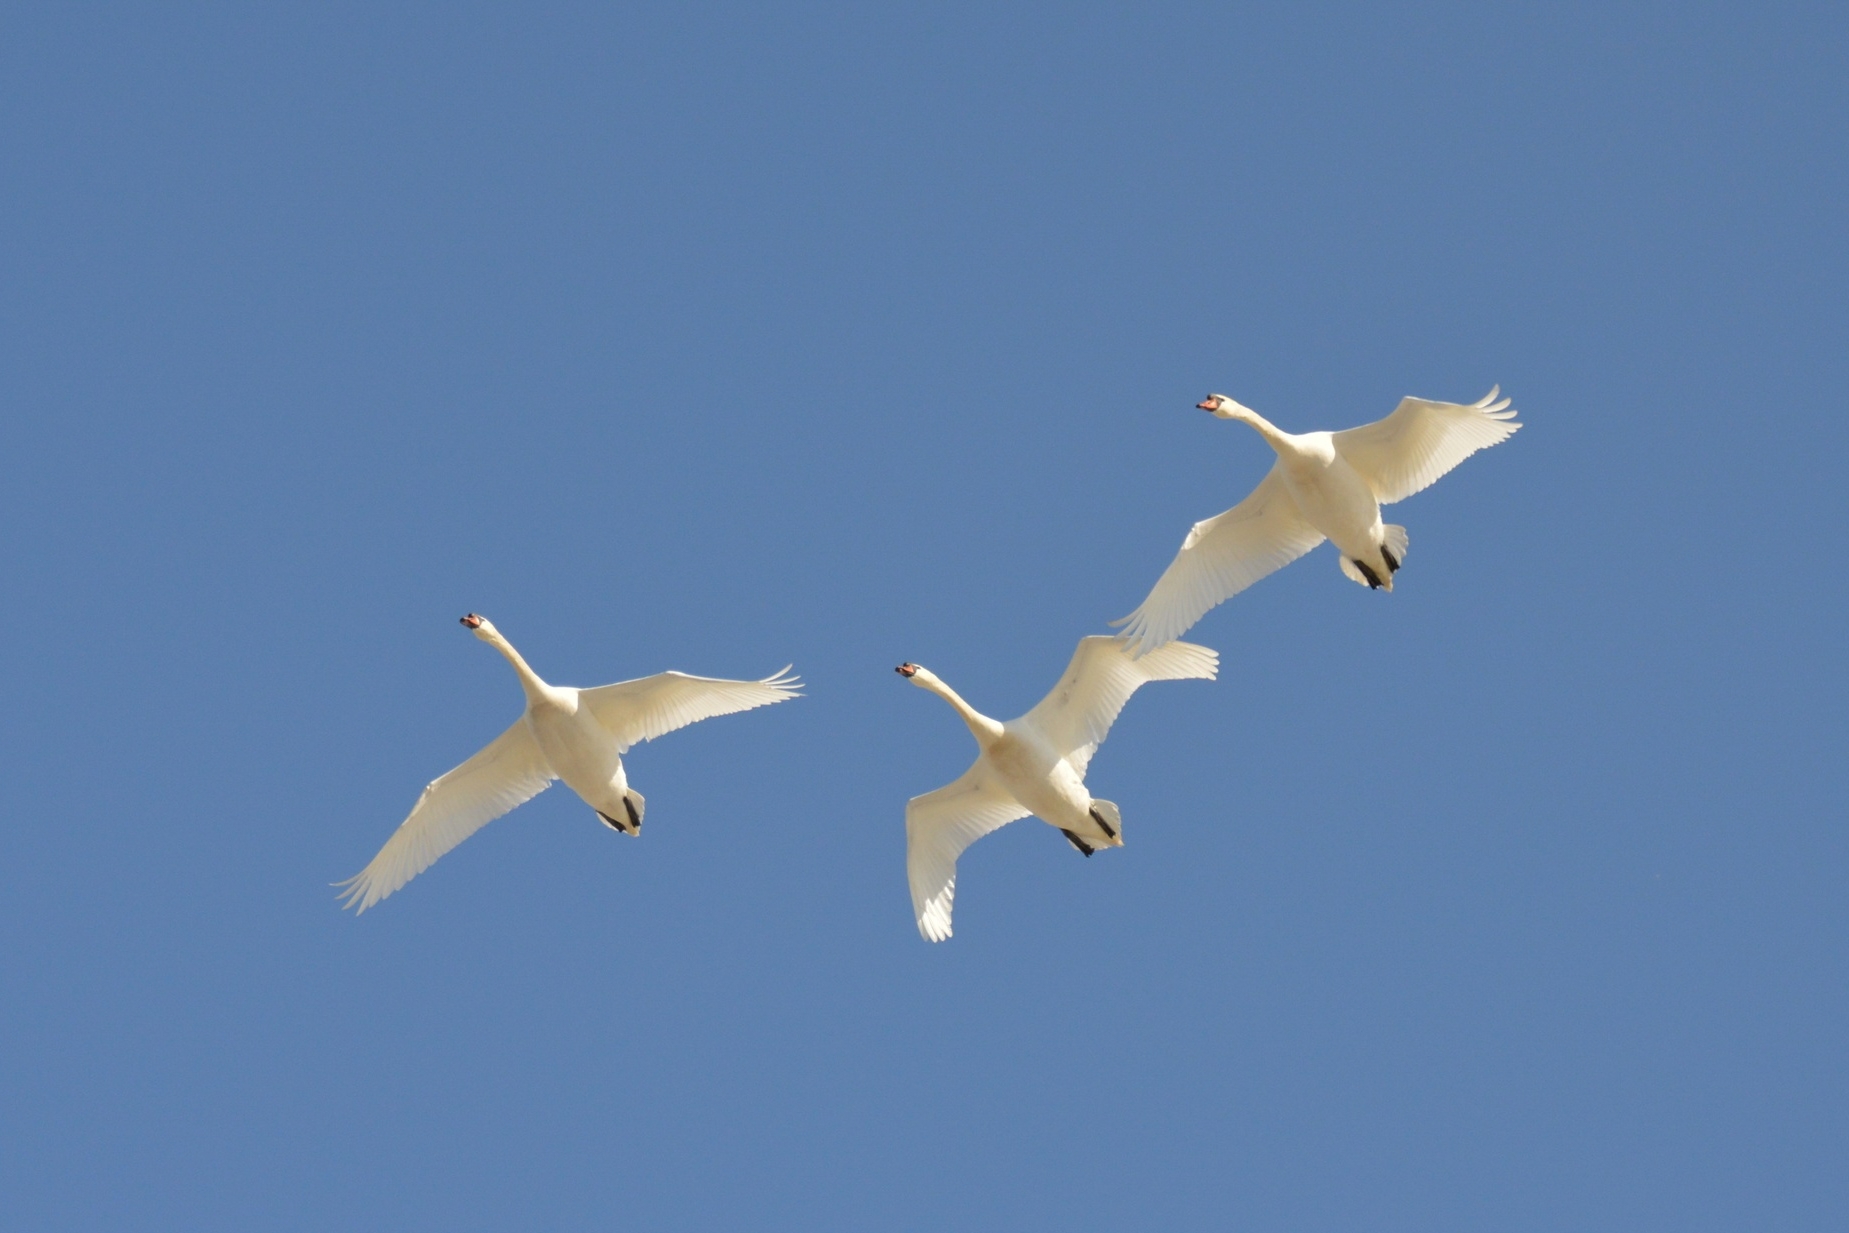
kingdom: Animalia
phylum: Chordata
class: Aves
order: Anseriformes
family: Anatidae
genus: Cygnus
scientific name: Cygnus olor
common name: Mute swan
